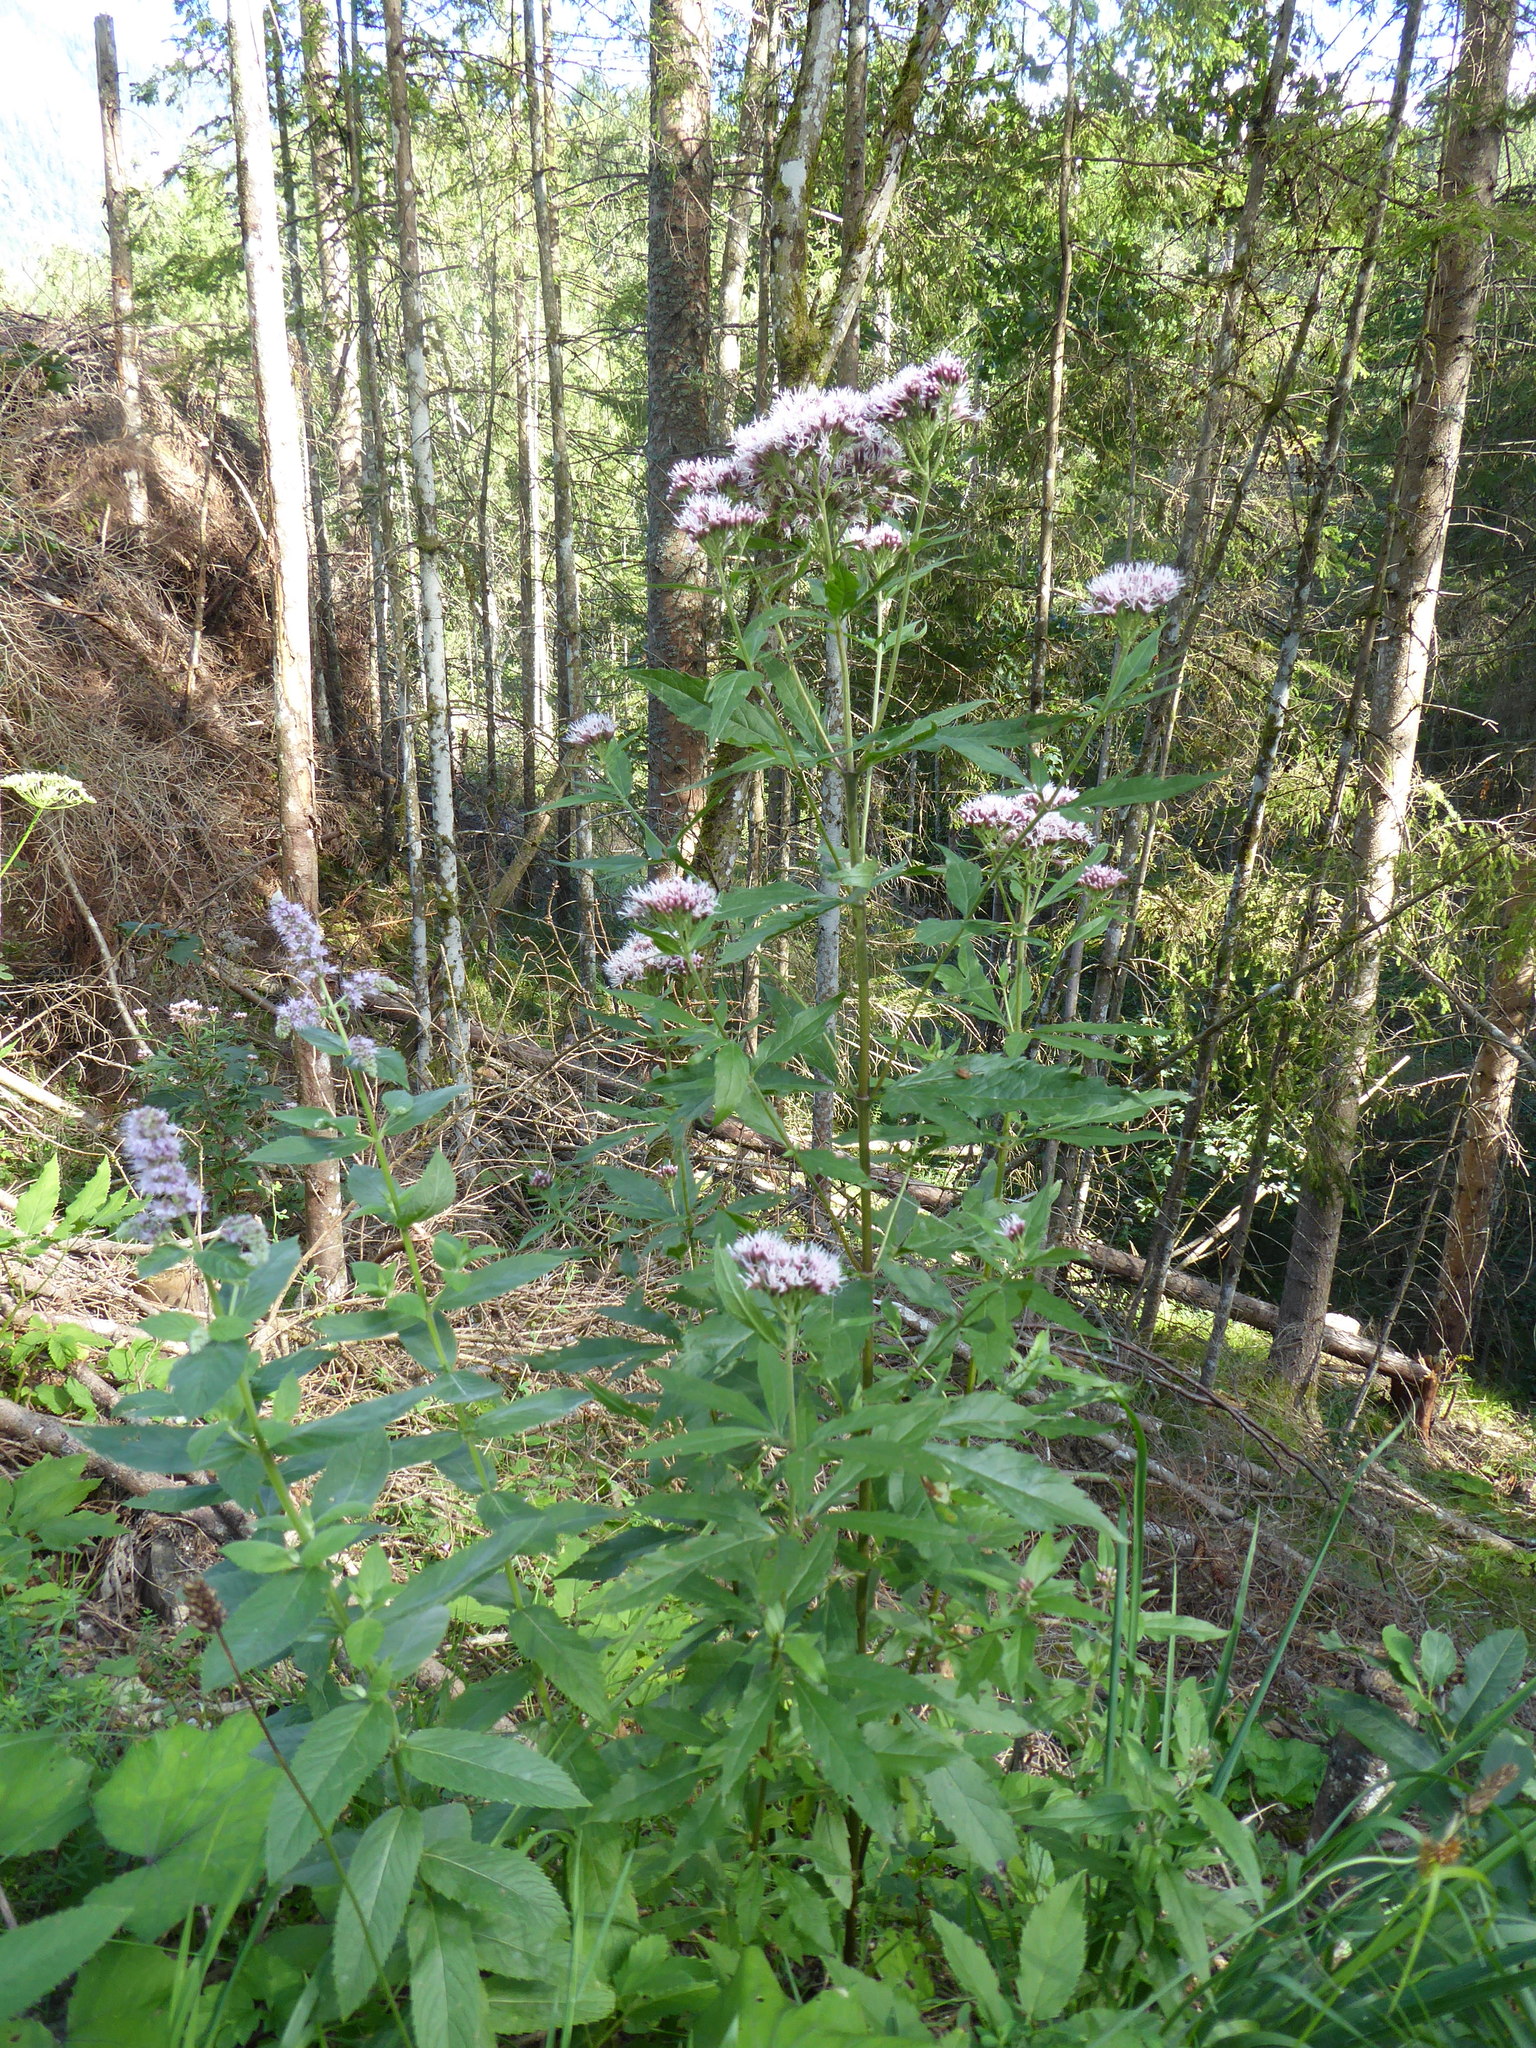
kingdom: Plantae
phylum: Tracheophyta
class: Magnoliopsida
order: Asterales
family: Asteraceae
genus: Eupatorium
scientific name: Eupatorium cannabinum
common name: Hemp-agrimony
